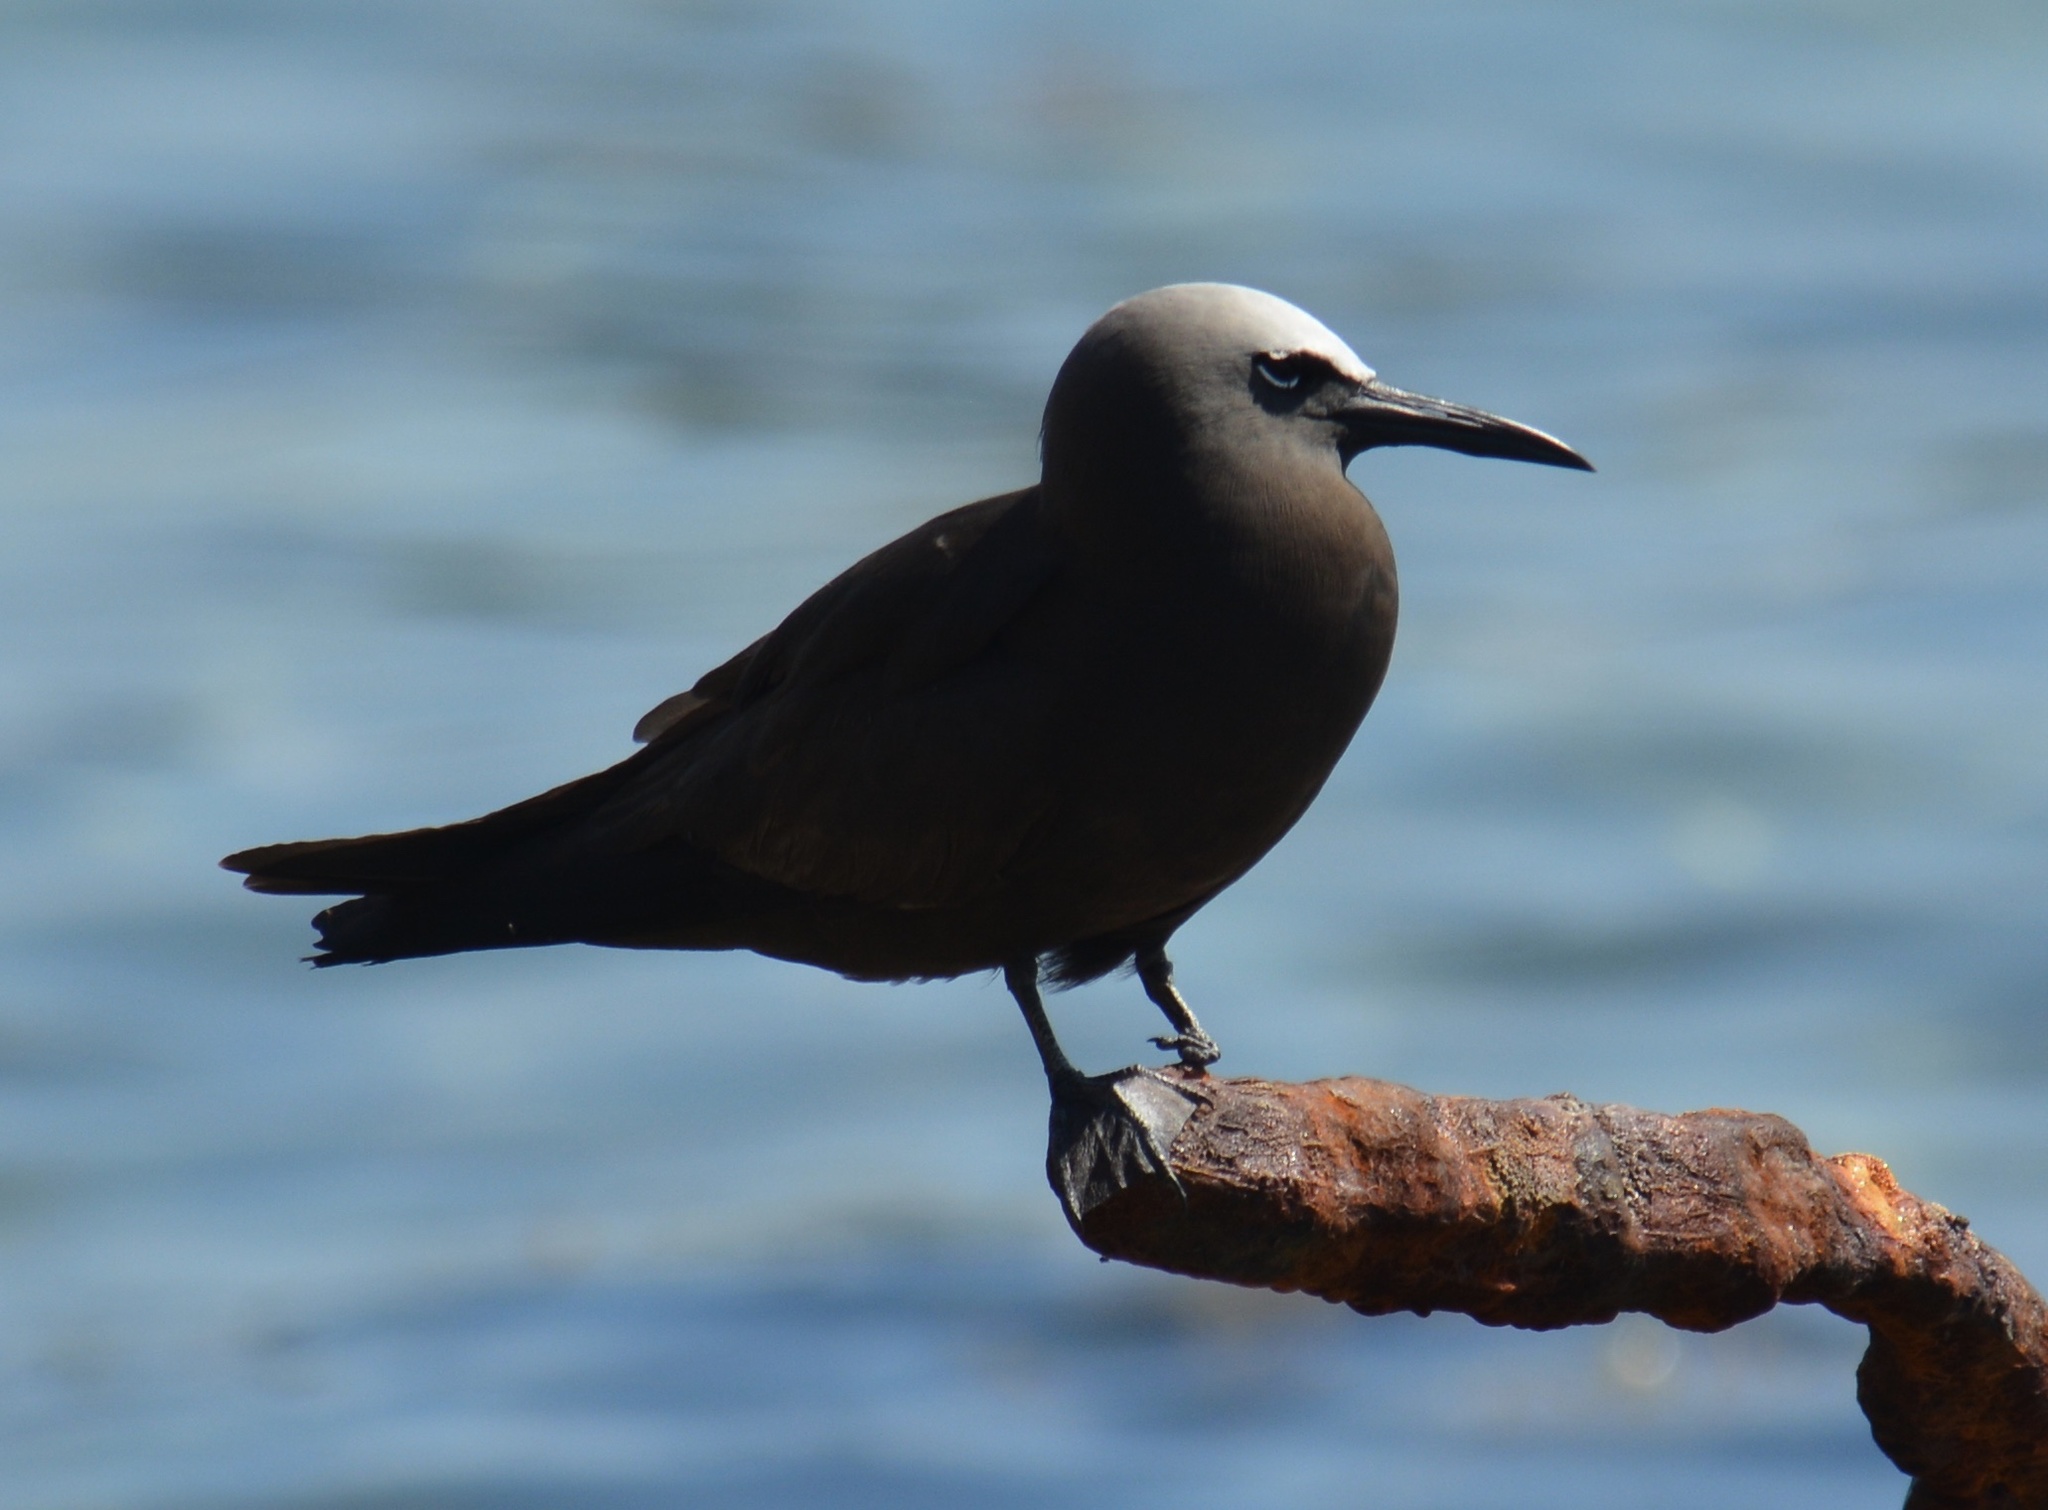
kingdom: Animalia
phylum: Chordata
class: Aves
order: Charadriiformes
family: Laridae
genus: Anous
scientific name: Anous stolidus
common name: Brown noddy
